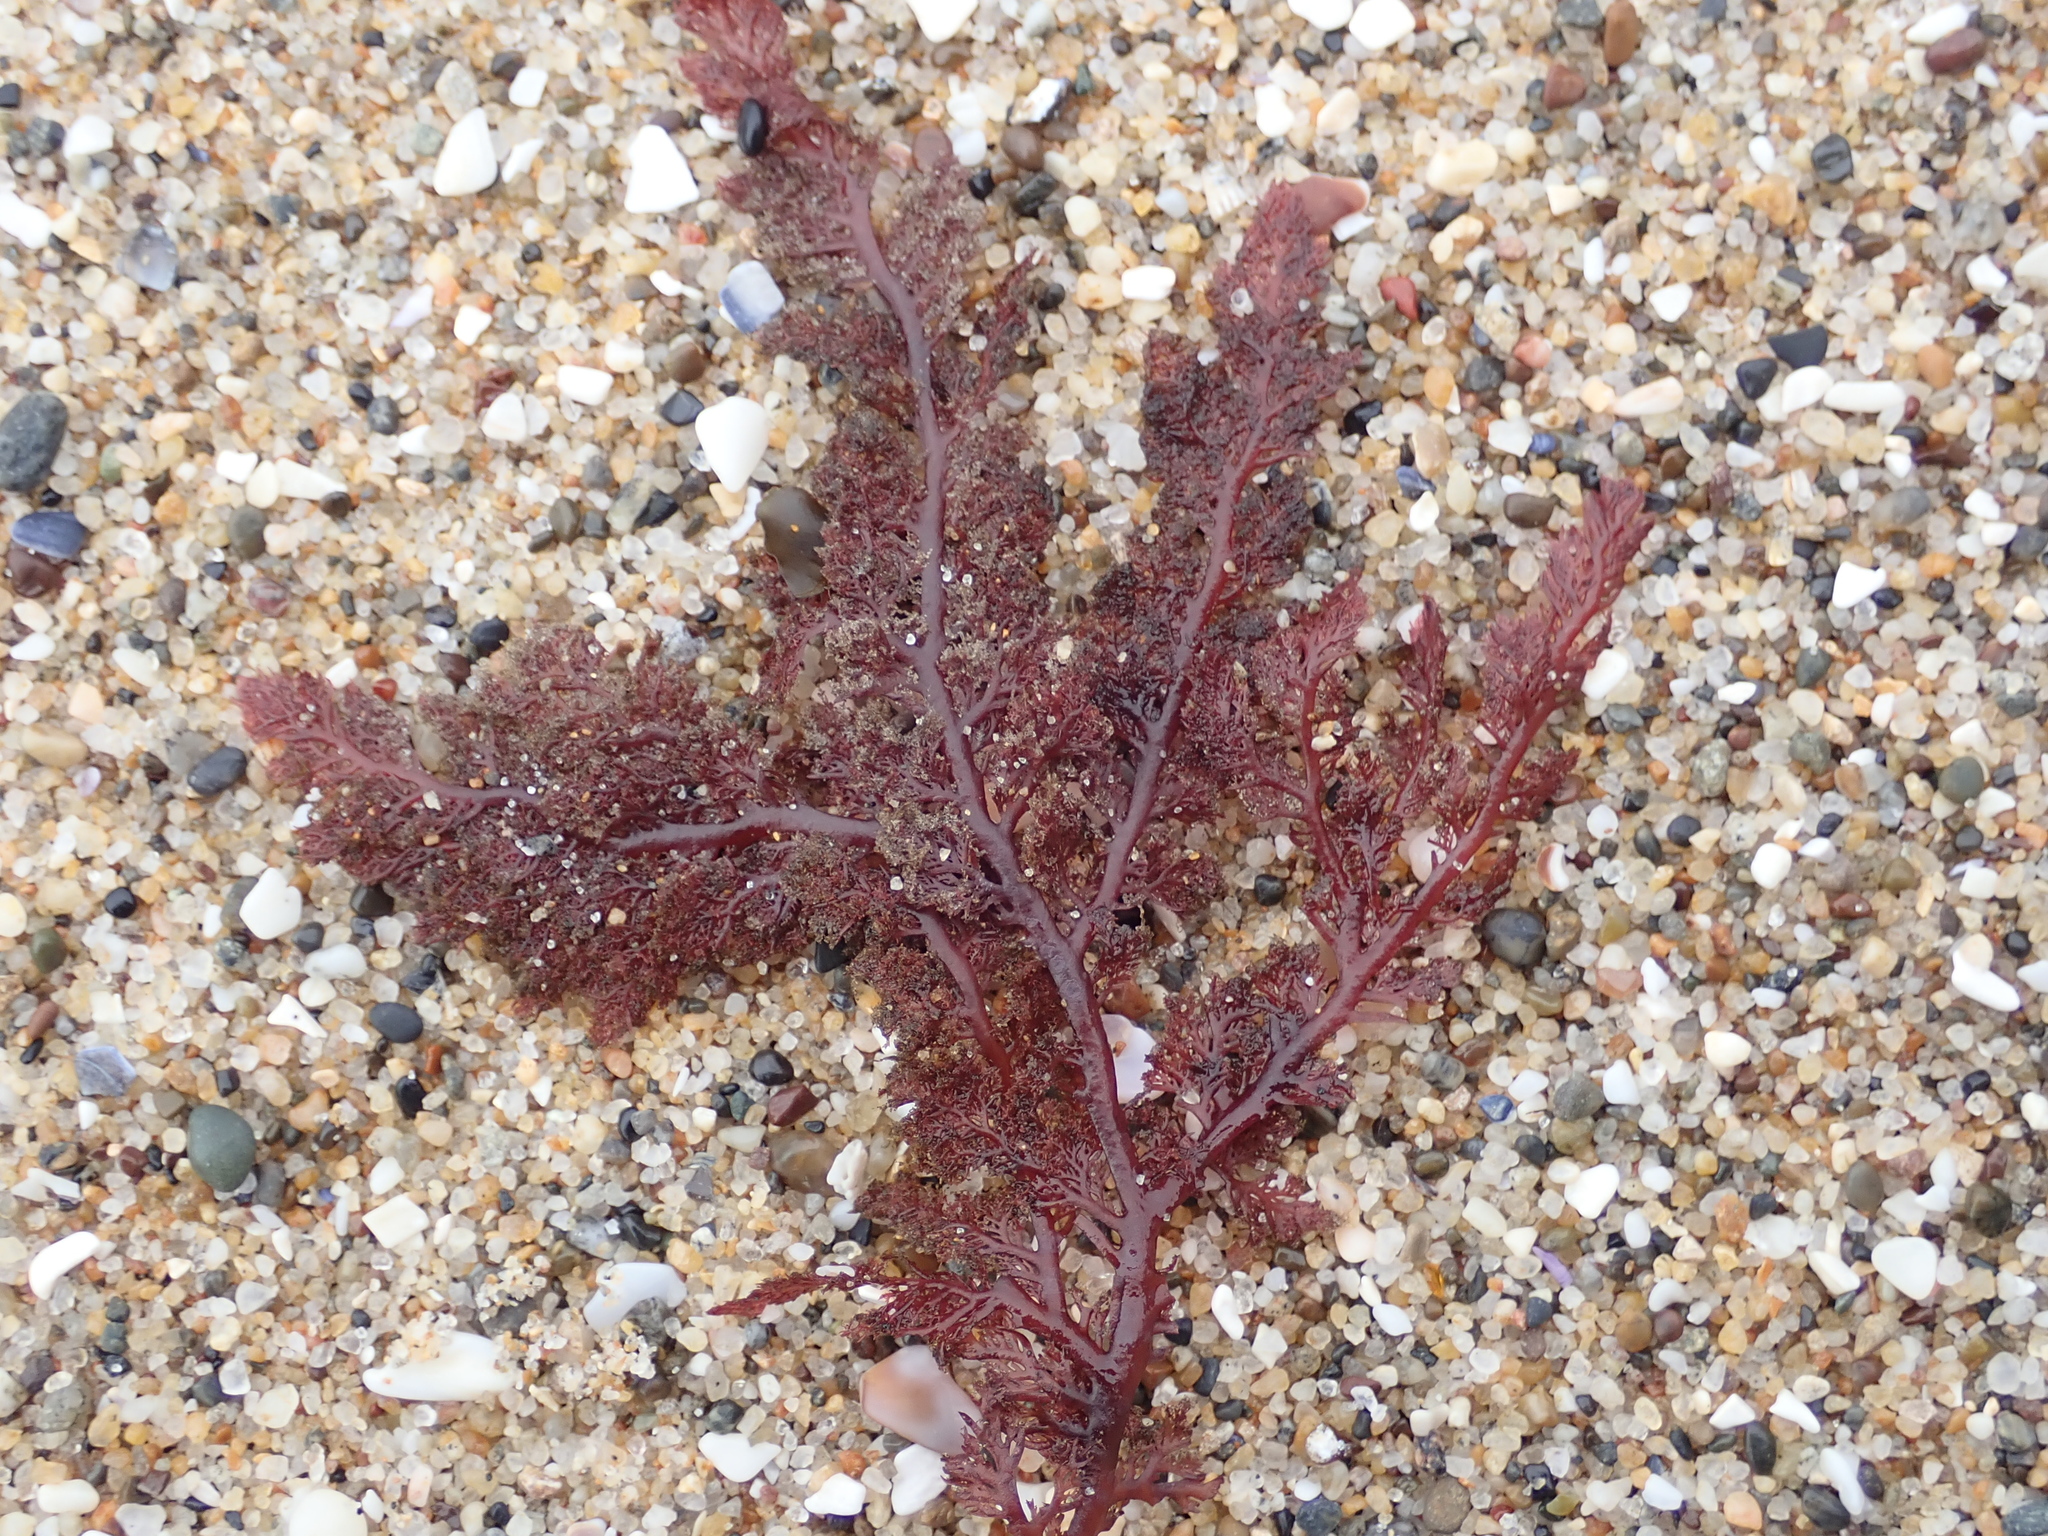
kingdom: Plantae
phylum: Rhodophyta
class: Florideophyceae
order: Plocamiales
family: Plocamiaceae
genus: Plocamium
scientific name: Plocamium cartilagineum
